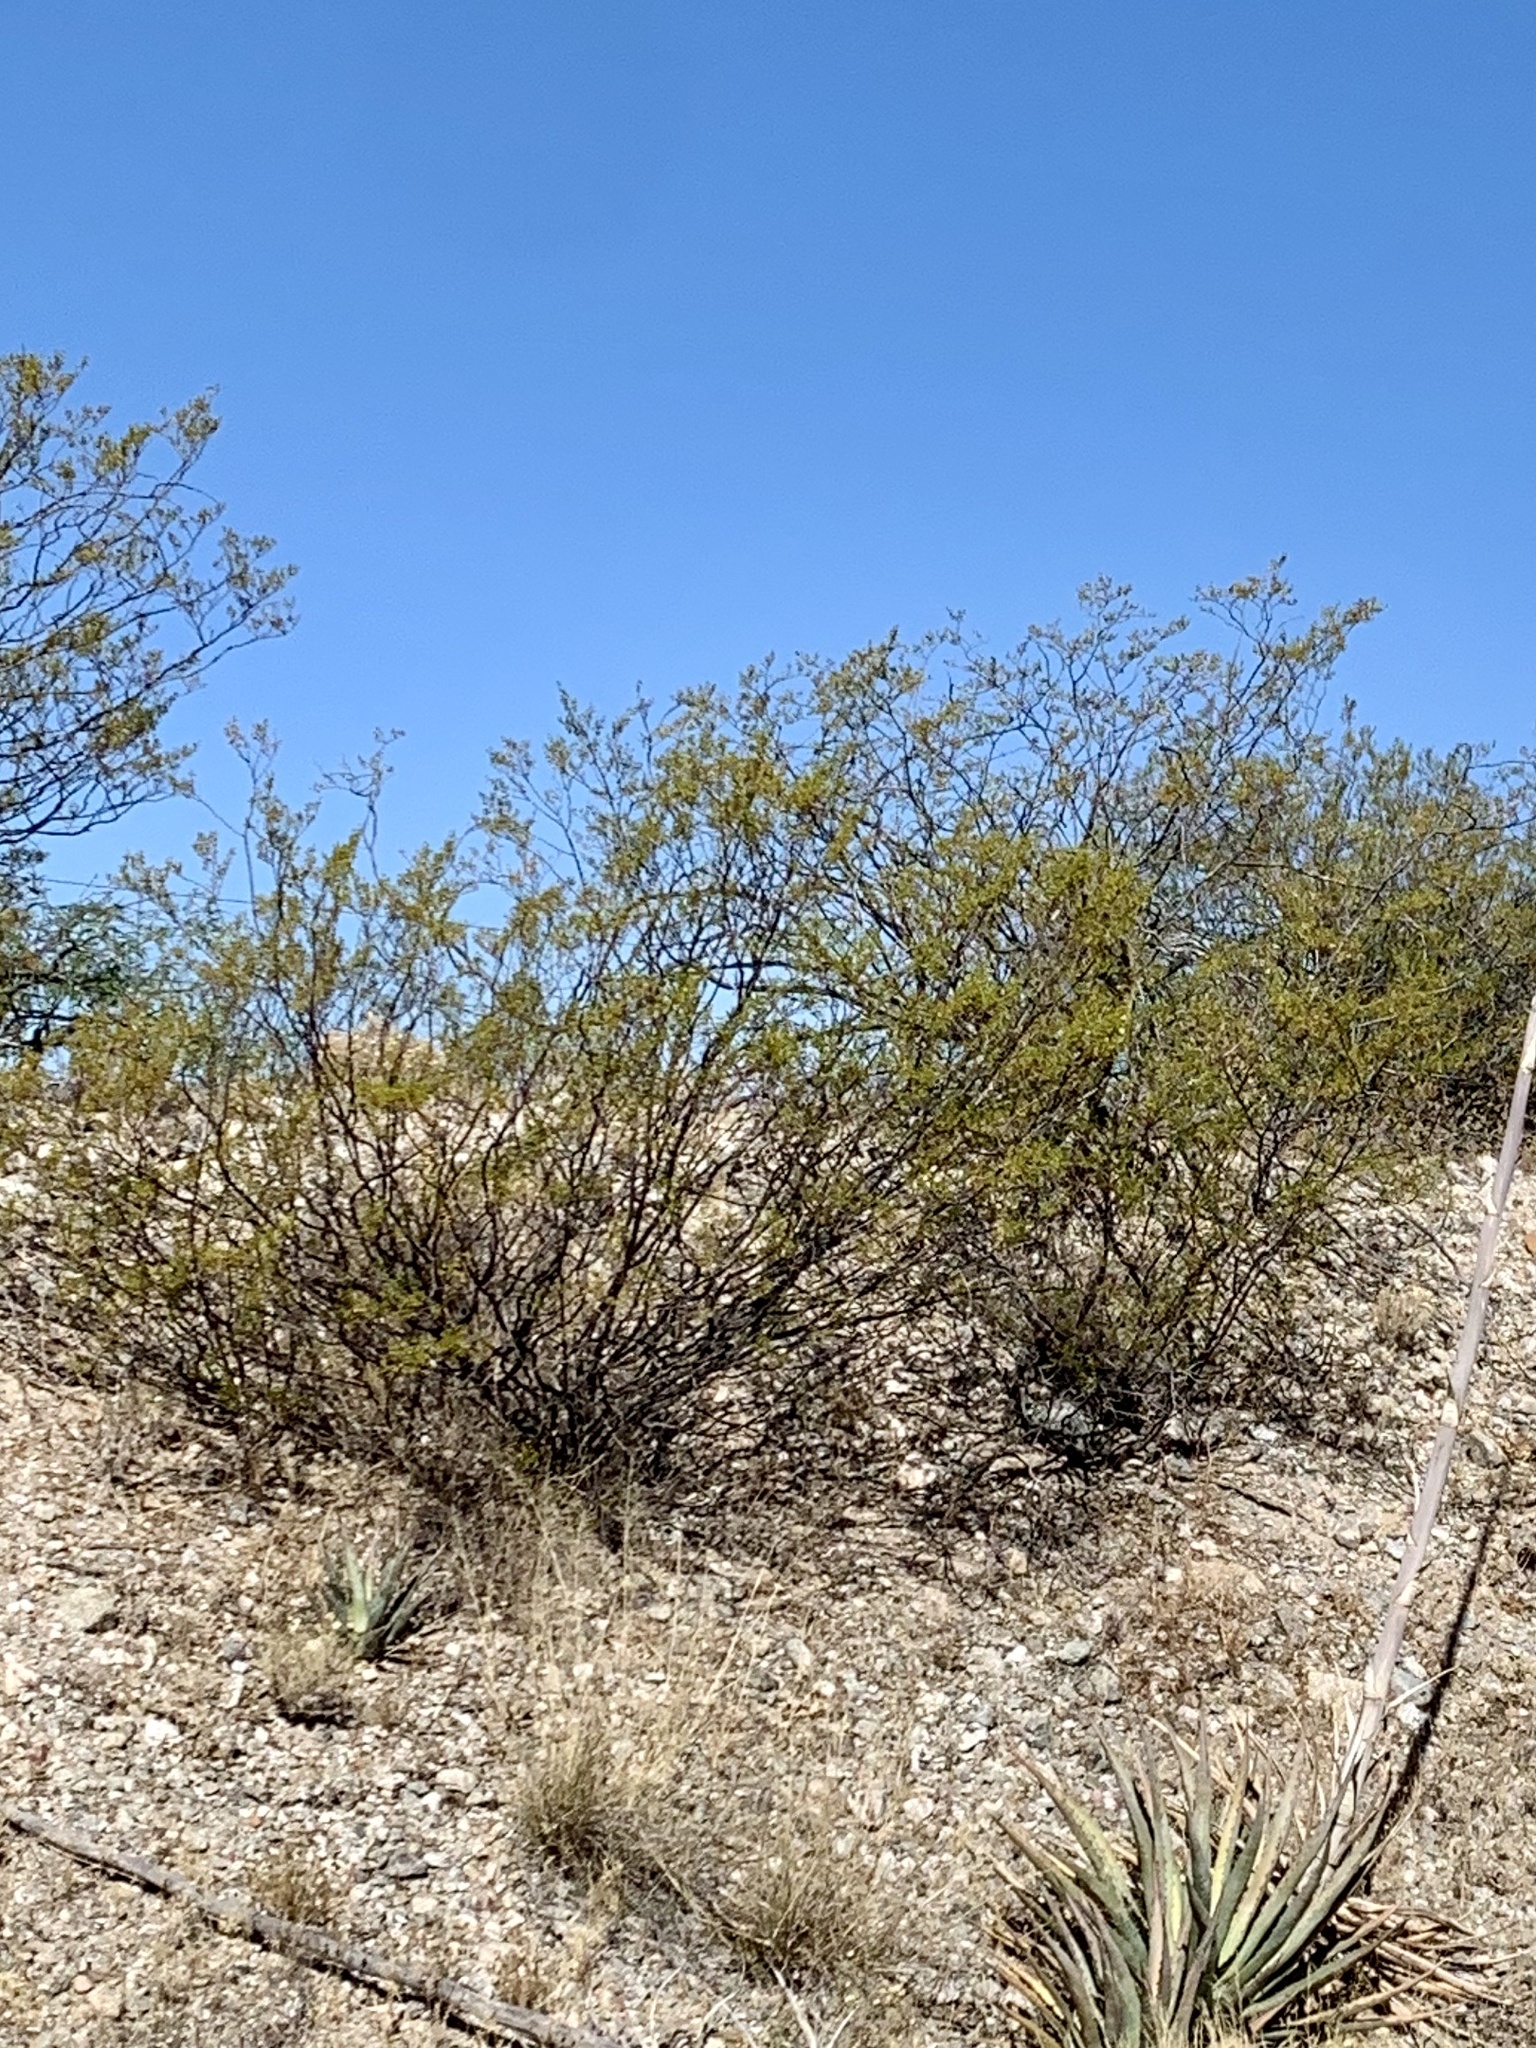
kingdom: Plantae
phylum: Tracheophyta
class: Magnoliopsida
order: Zygophyllales
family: Zygophyllaceae
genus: Larrea
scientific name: Larrea tridentata
